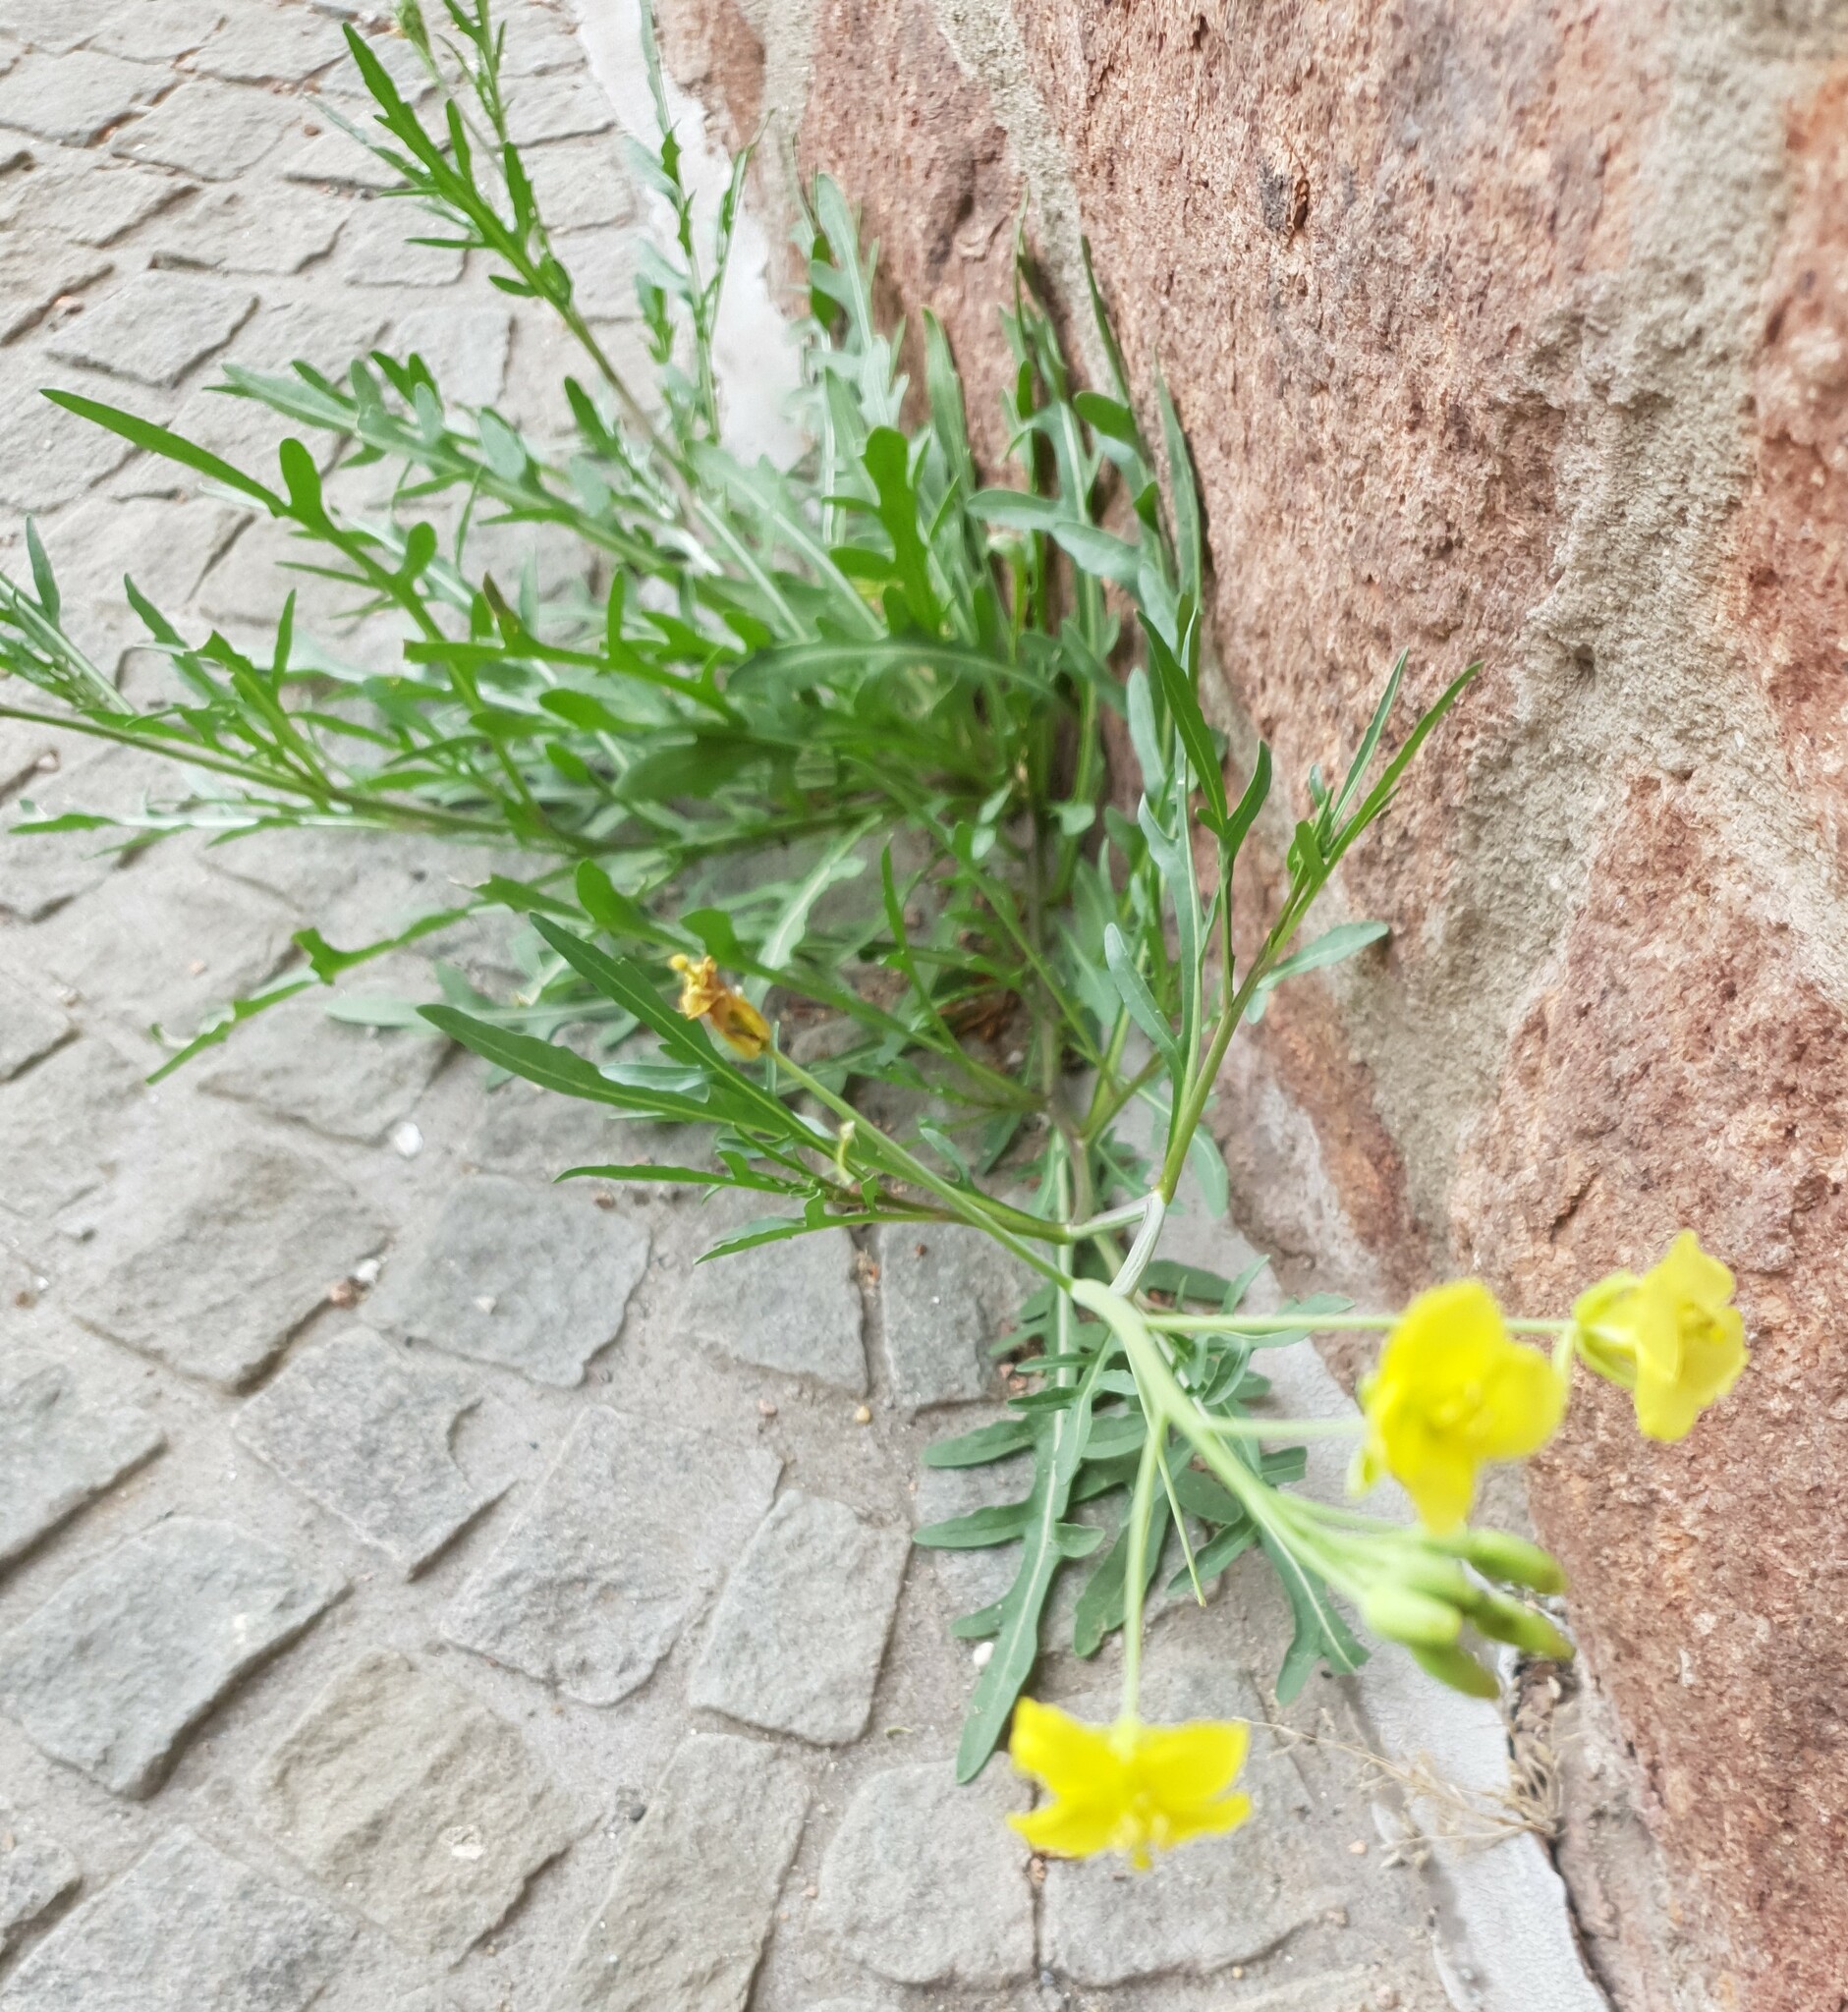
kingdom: Plantae
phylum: Tracheophyta
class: Magnoliopsida
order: Brassicales
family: Brassicaceae
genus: Diplotaxis
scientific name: Diplotaxis tenuifolia
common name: Perennial wall-rocket
